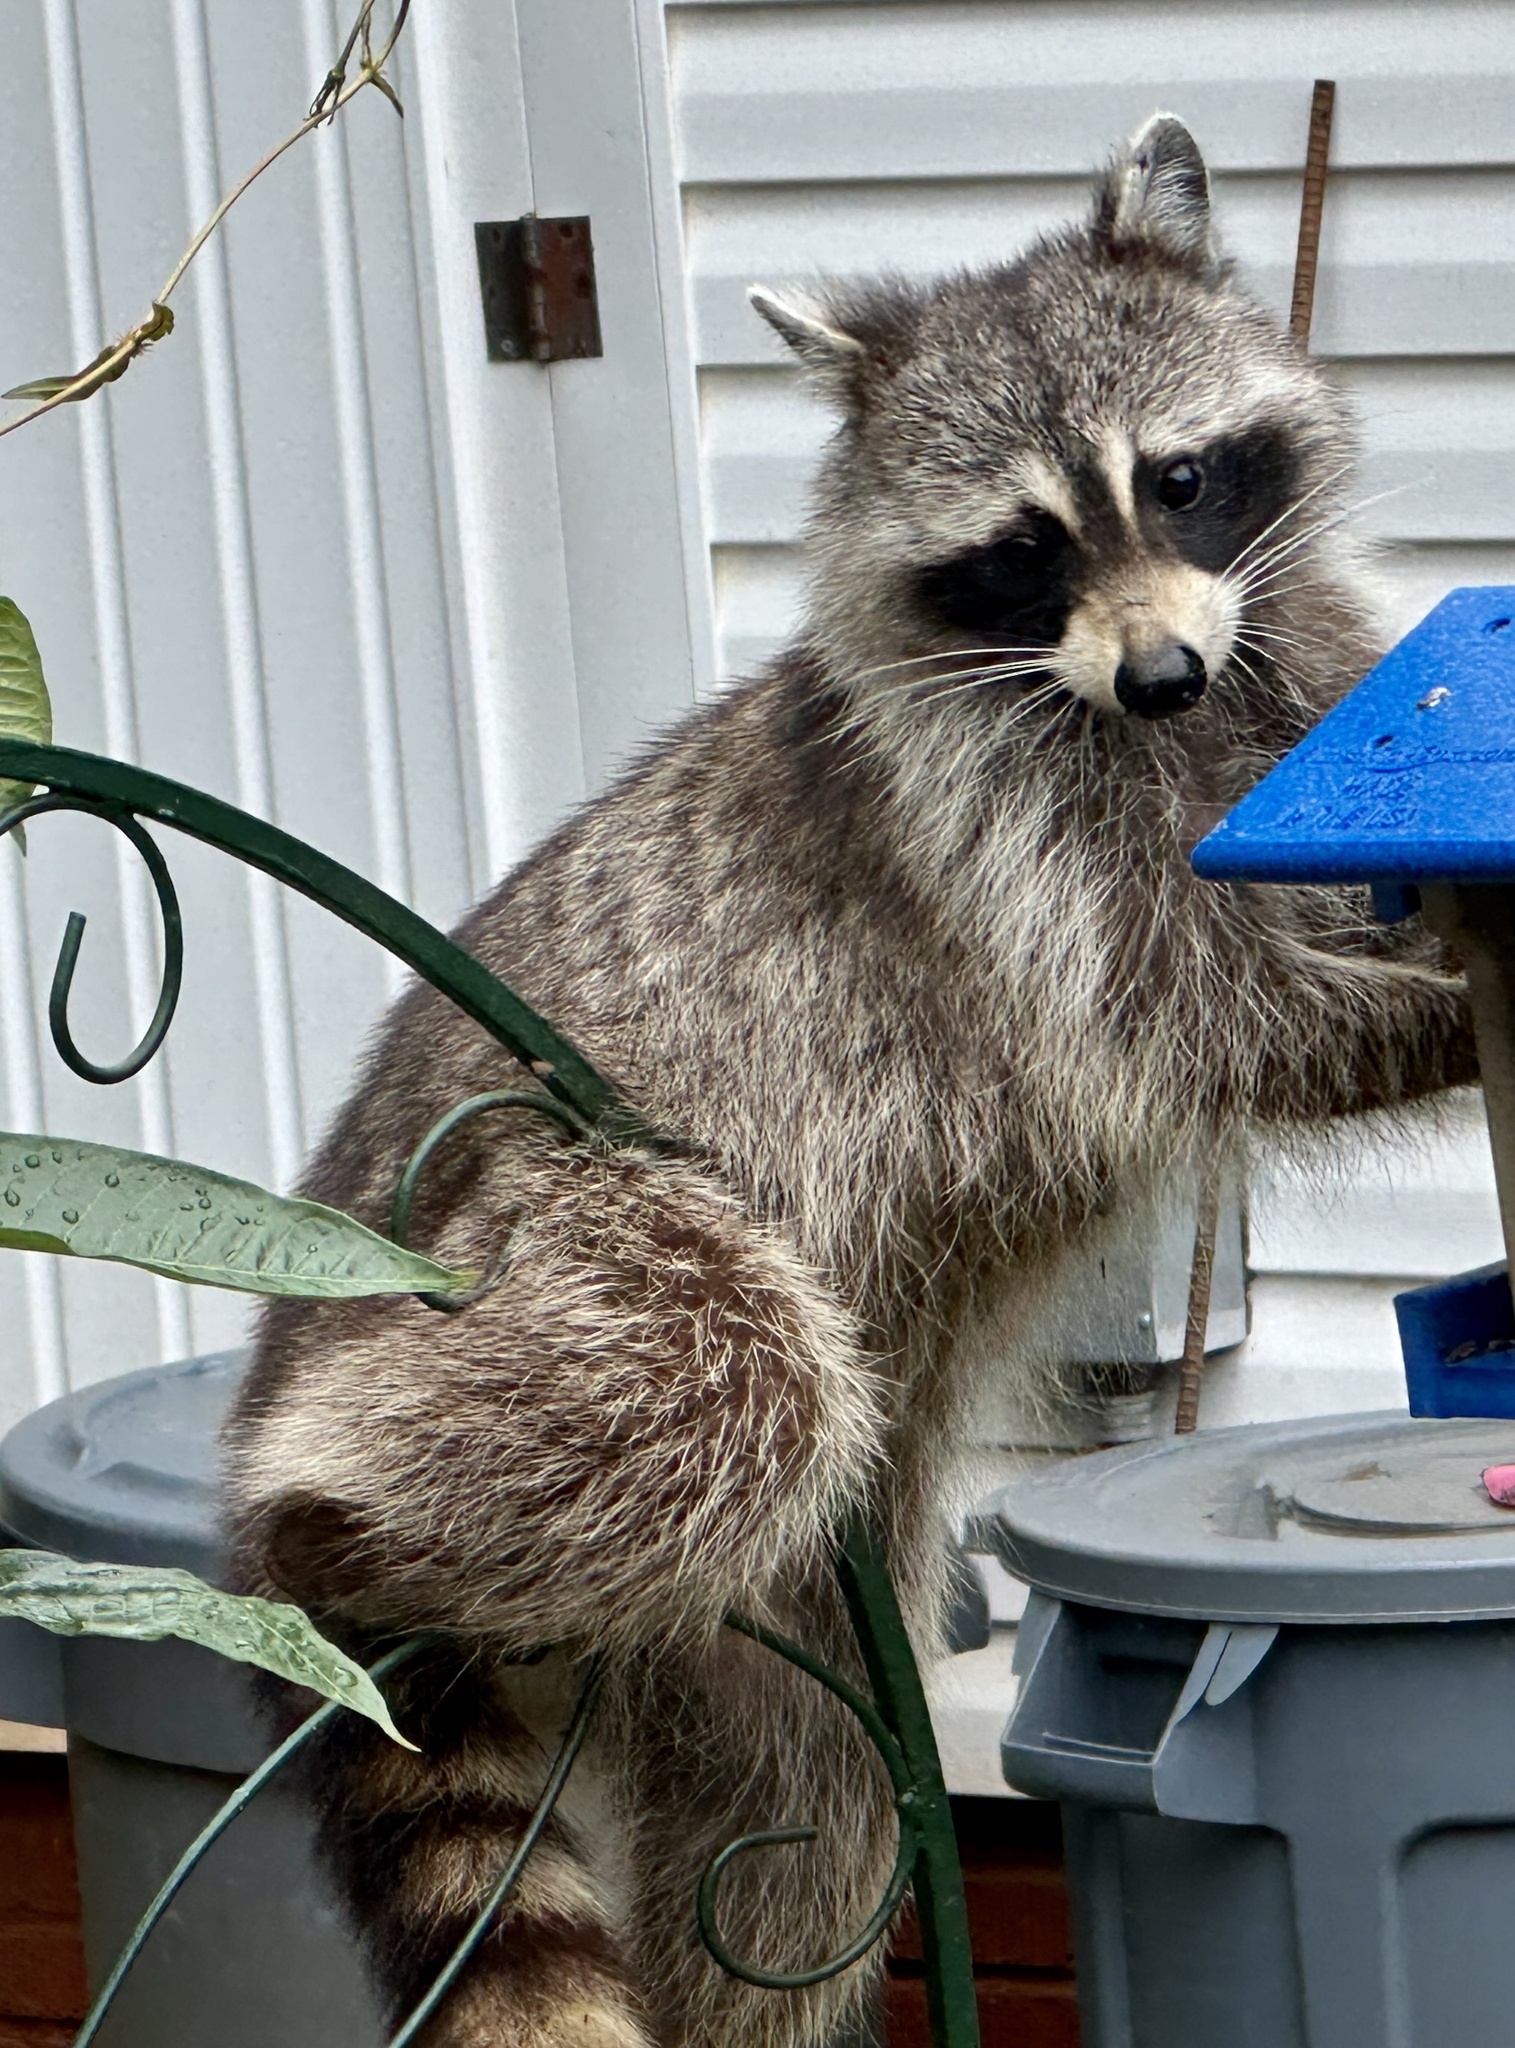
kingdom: Animalia
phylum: Chordata
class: Mammalia
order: Carnivora
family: Procyonidae
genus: Procyon
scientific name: Procyon lotor
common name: Raccoon
